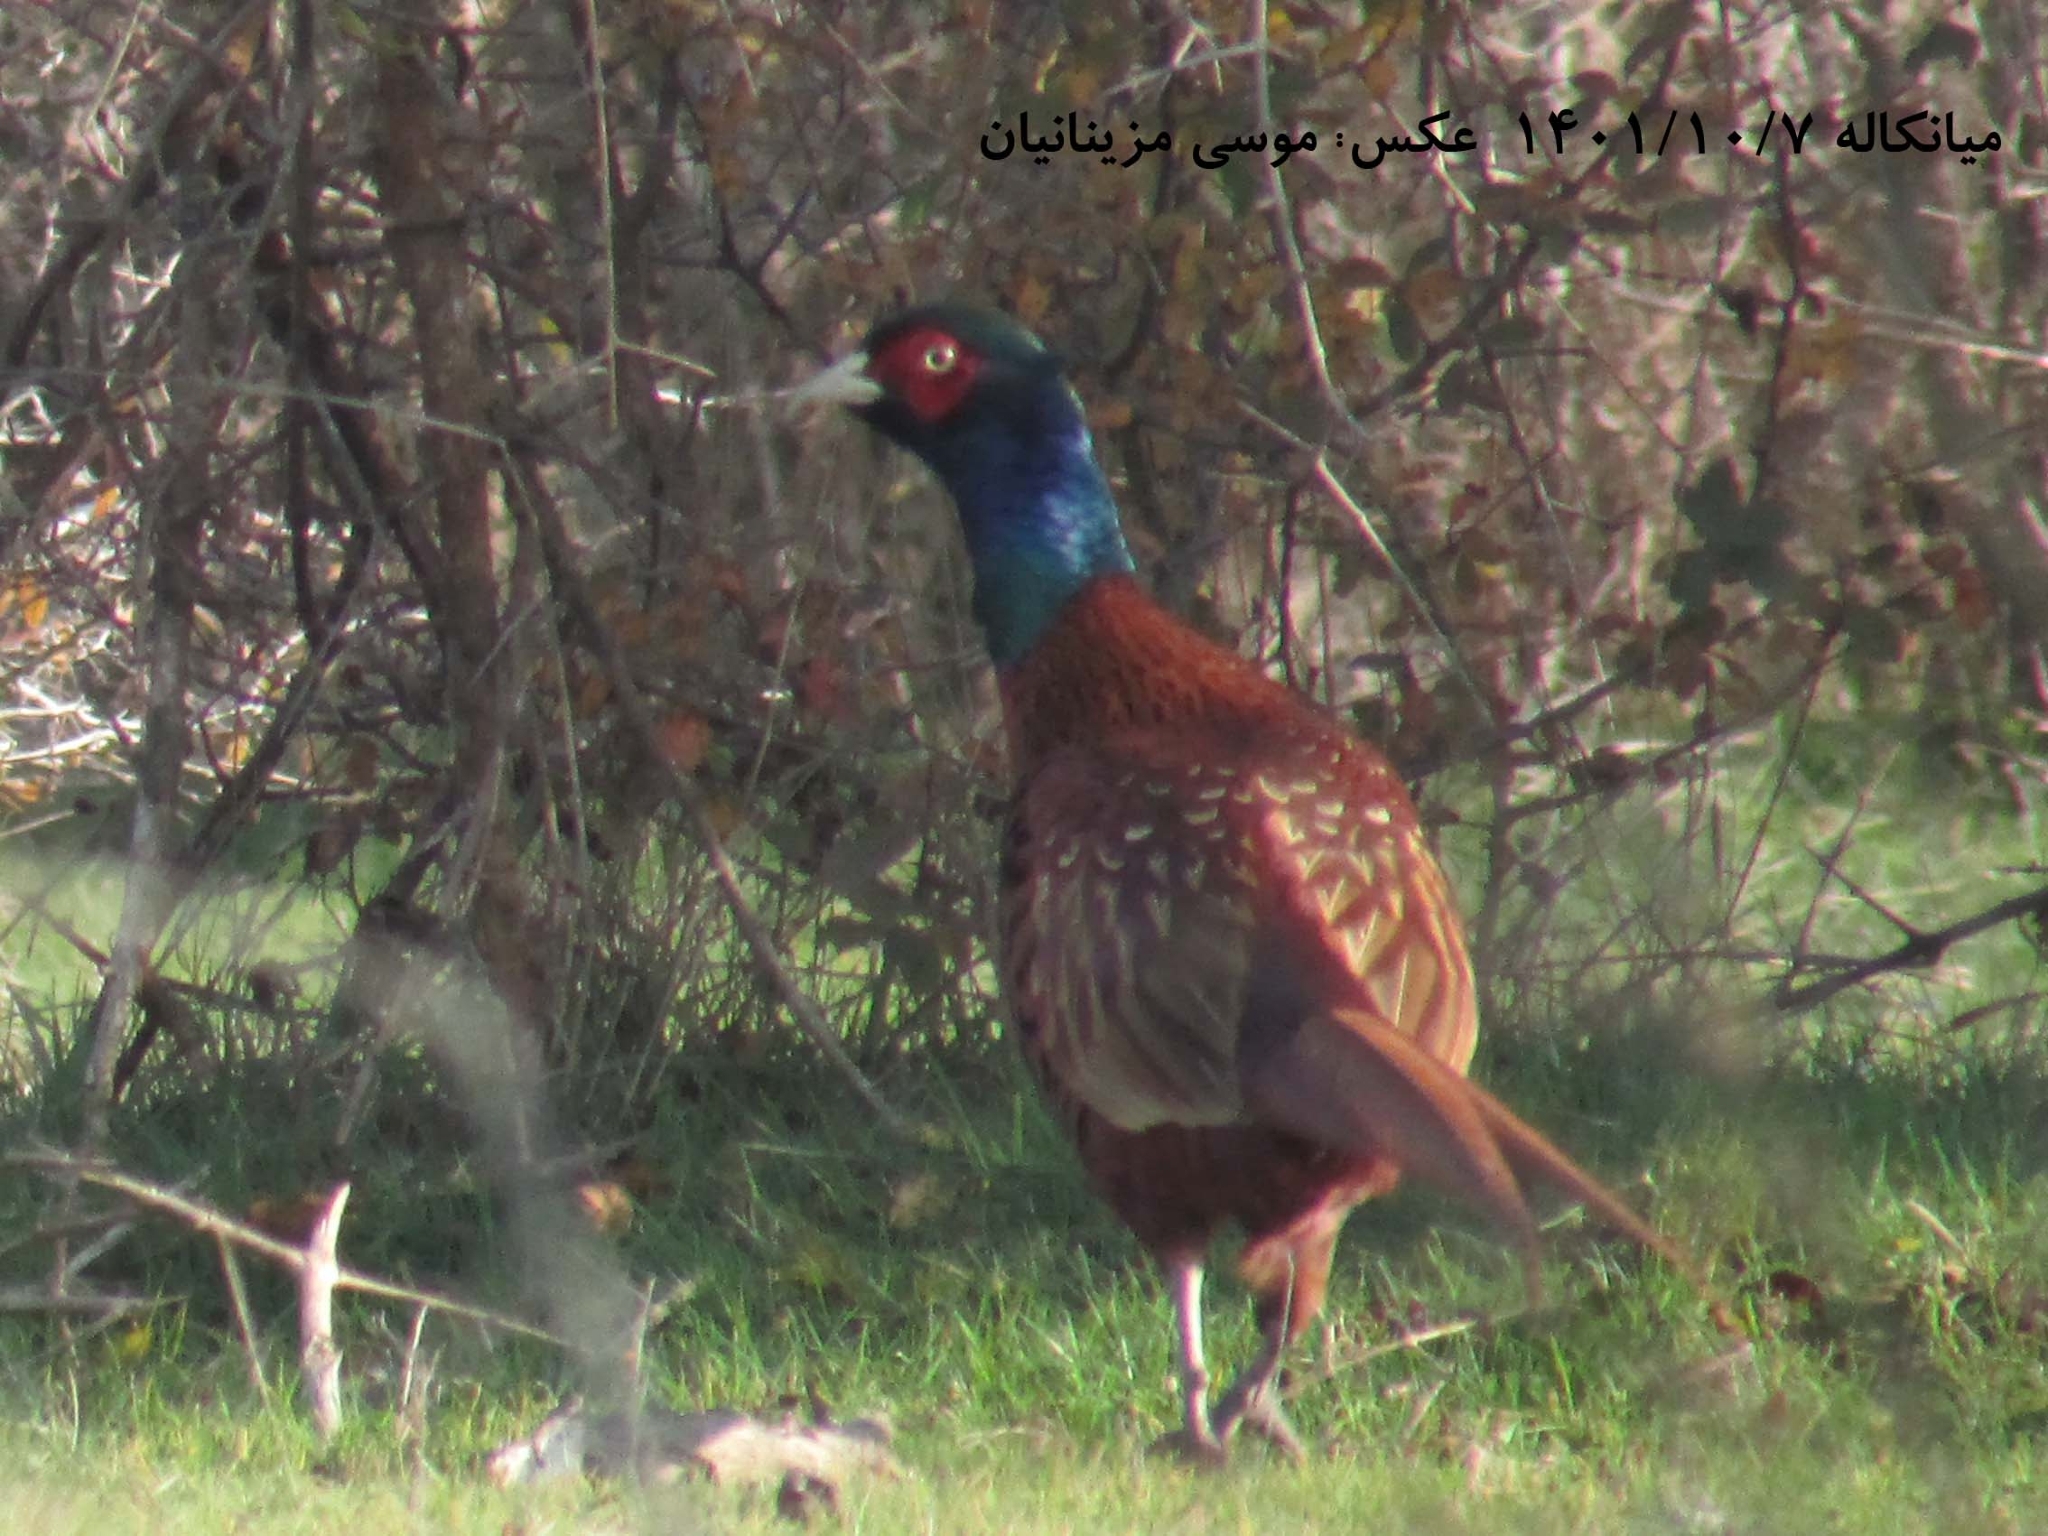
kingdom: Animalia
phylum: Chordata
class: Aves
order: Galliformes
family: Phasianidae
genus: Phasianus
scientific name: Phasianus colchicus
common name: Common pheasant
